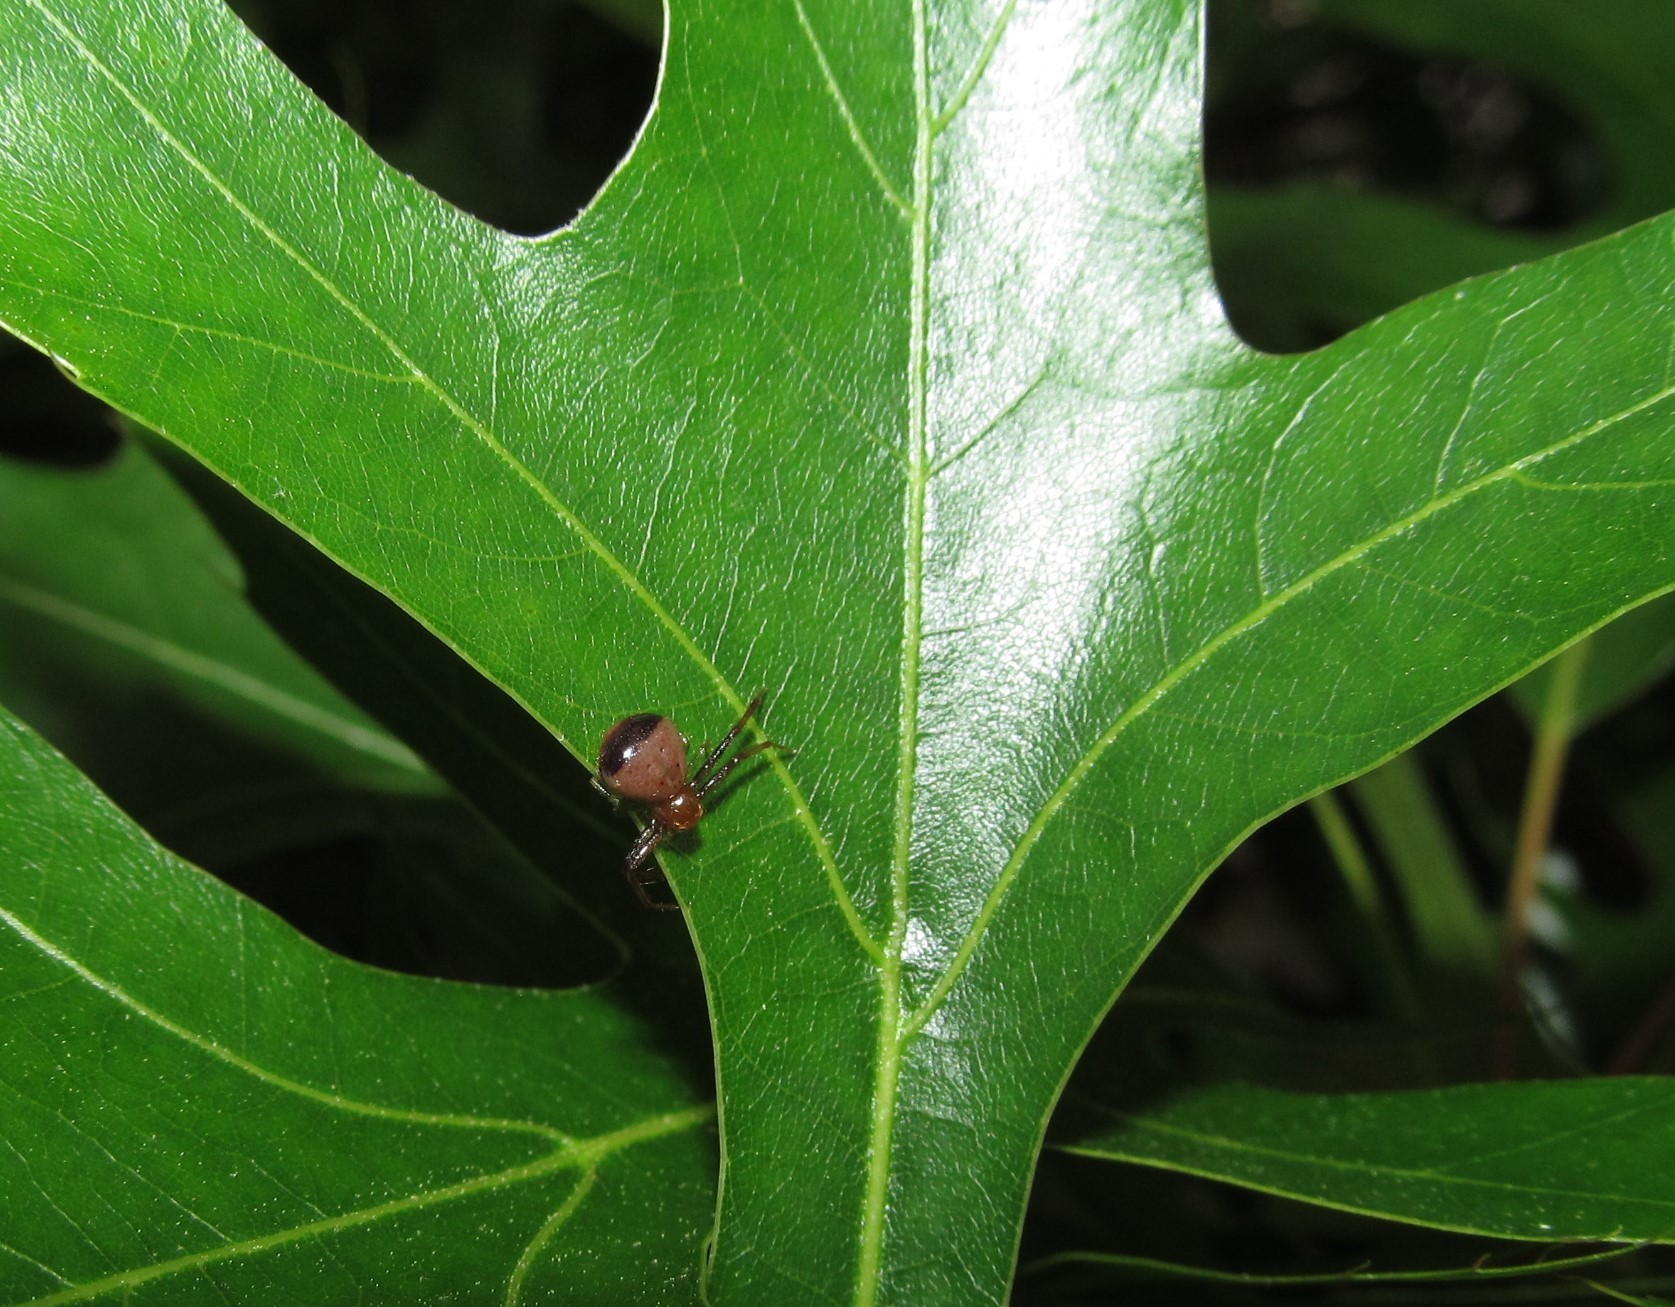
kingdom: Animalia
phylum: Arthropoda
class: Arachnida
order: Araneae
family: Thomisidae
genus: Synema
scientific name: Synema parvulum
